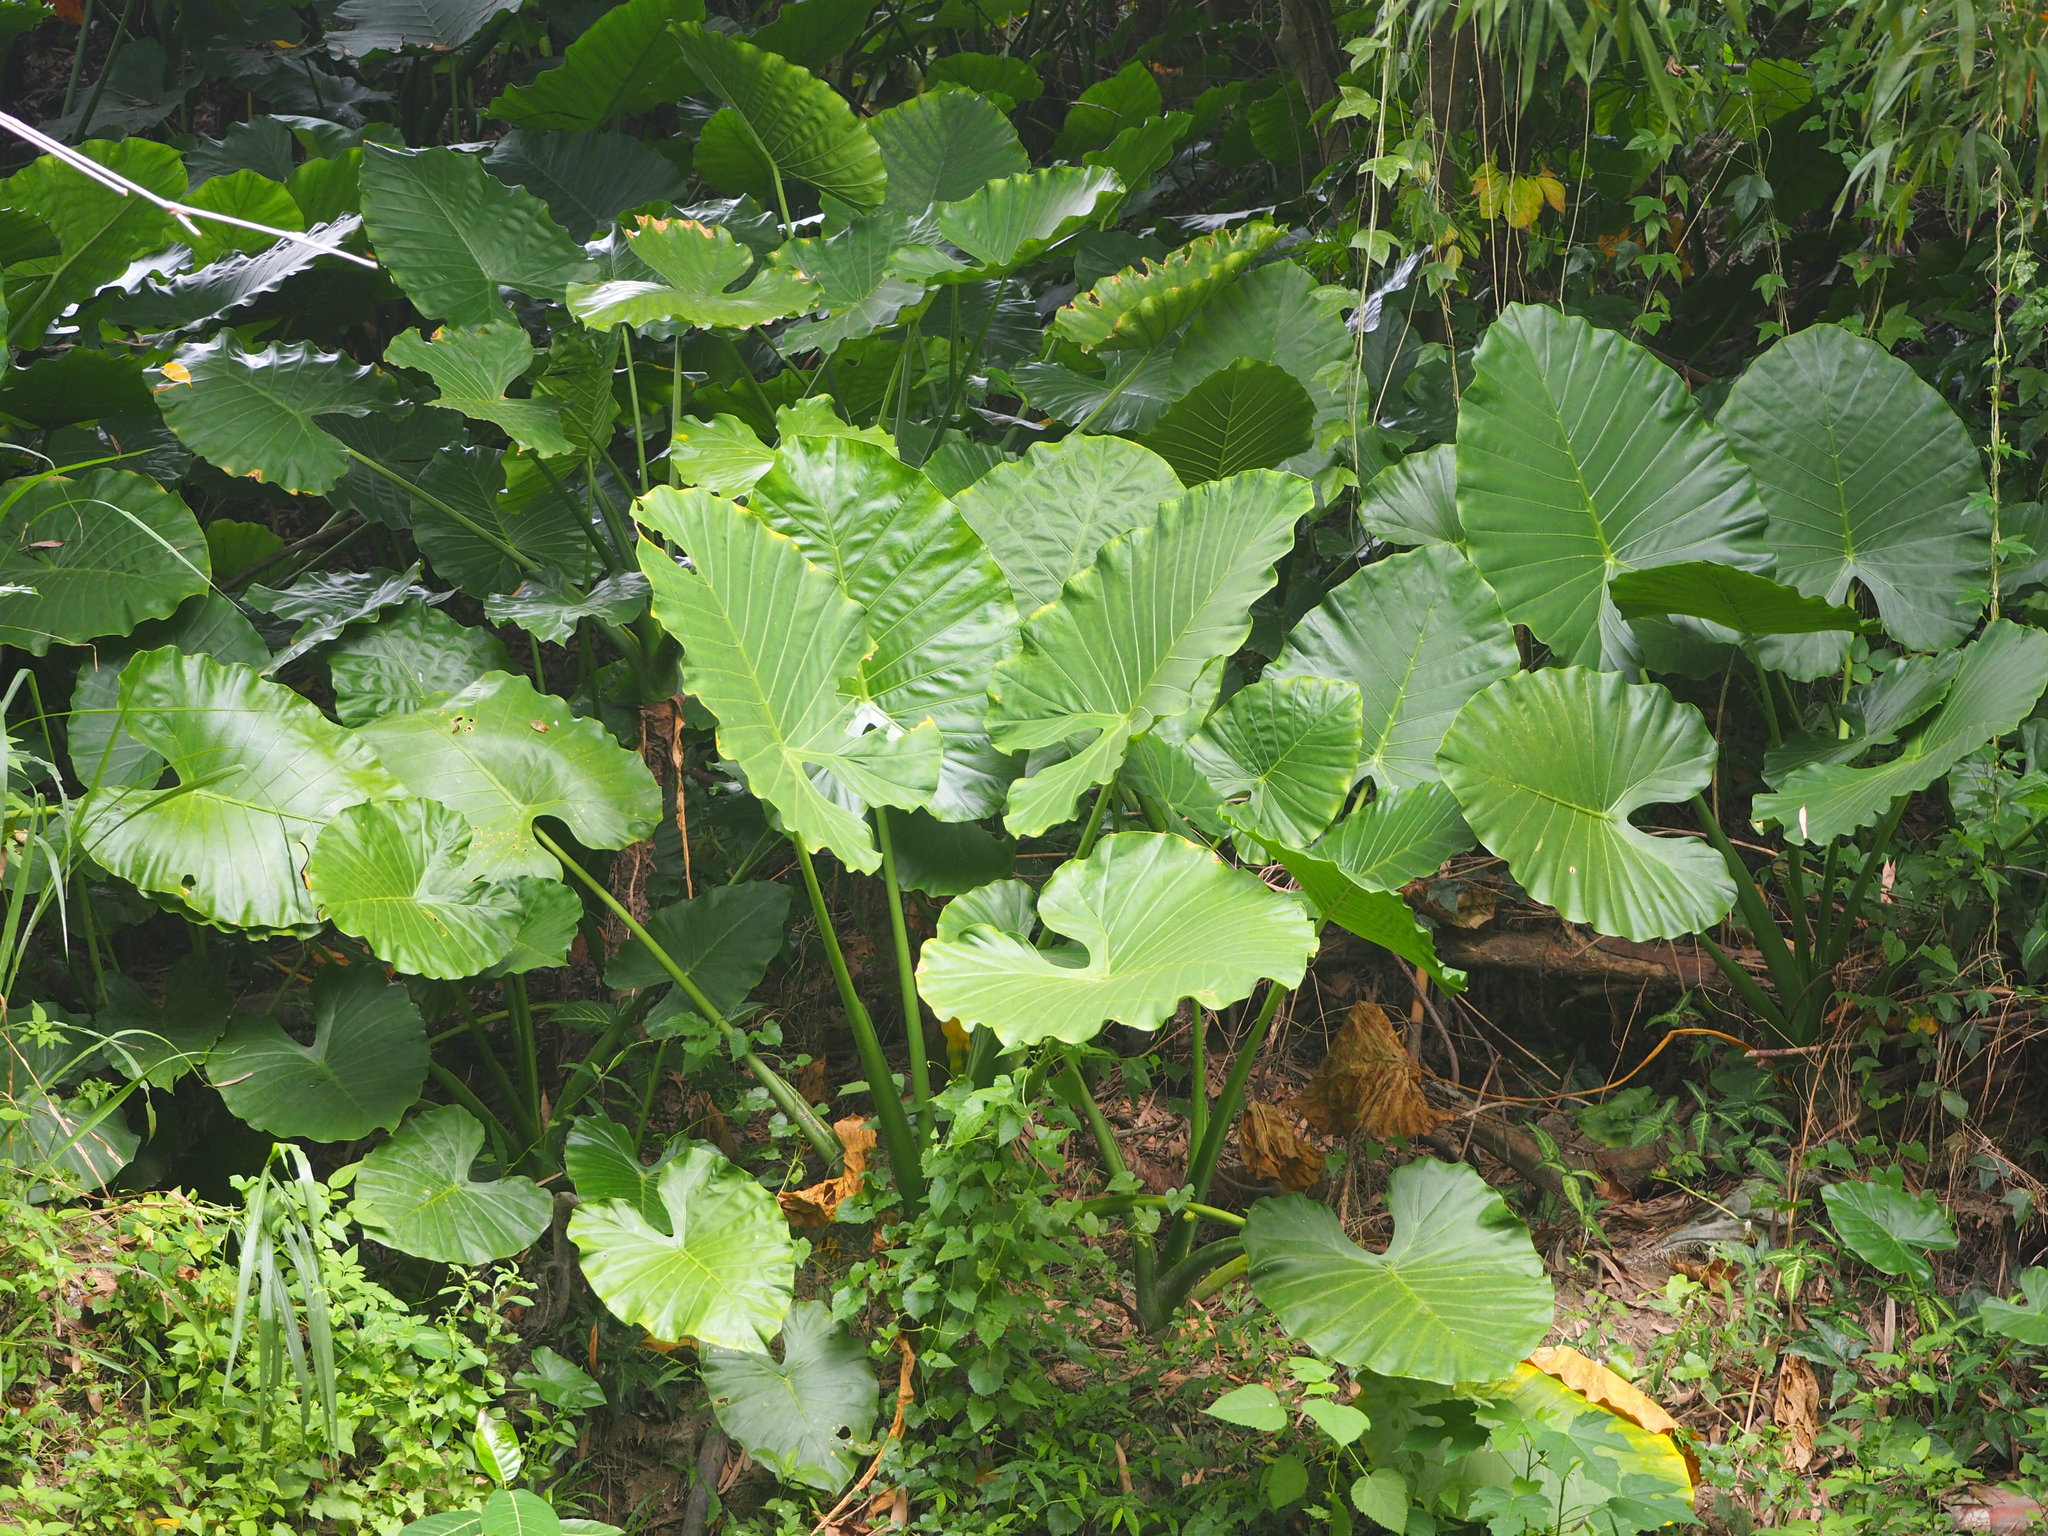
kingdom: Plantae
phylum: Tracheophyta
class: Liliopsida
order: Alismatales
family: Araceae
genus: Alocasia
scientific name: Alocasia odora
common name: Asian taro
